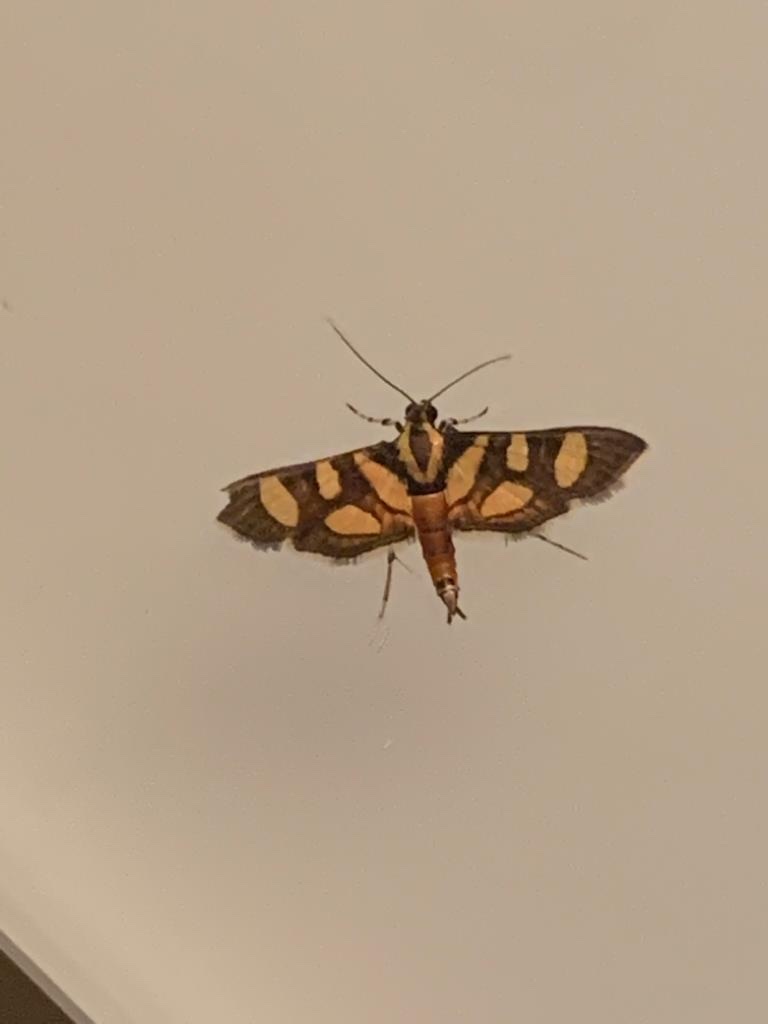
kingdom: Animalia
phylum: Arthropoda
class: Insecta
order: Lepidoptera
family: Crambidae
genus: Syngamia
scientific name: Syngamia florella
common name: Orange-spotted flower moth
